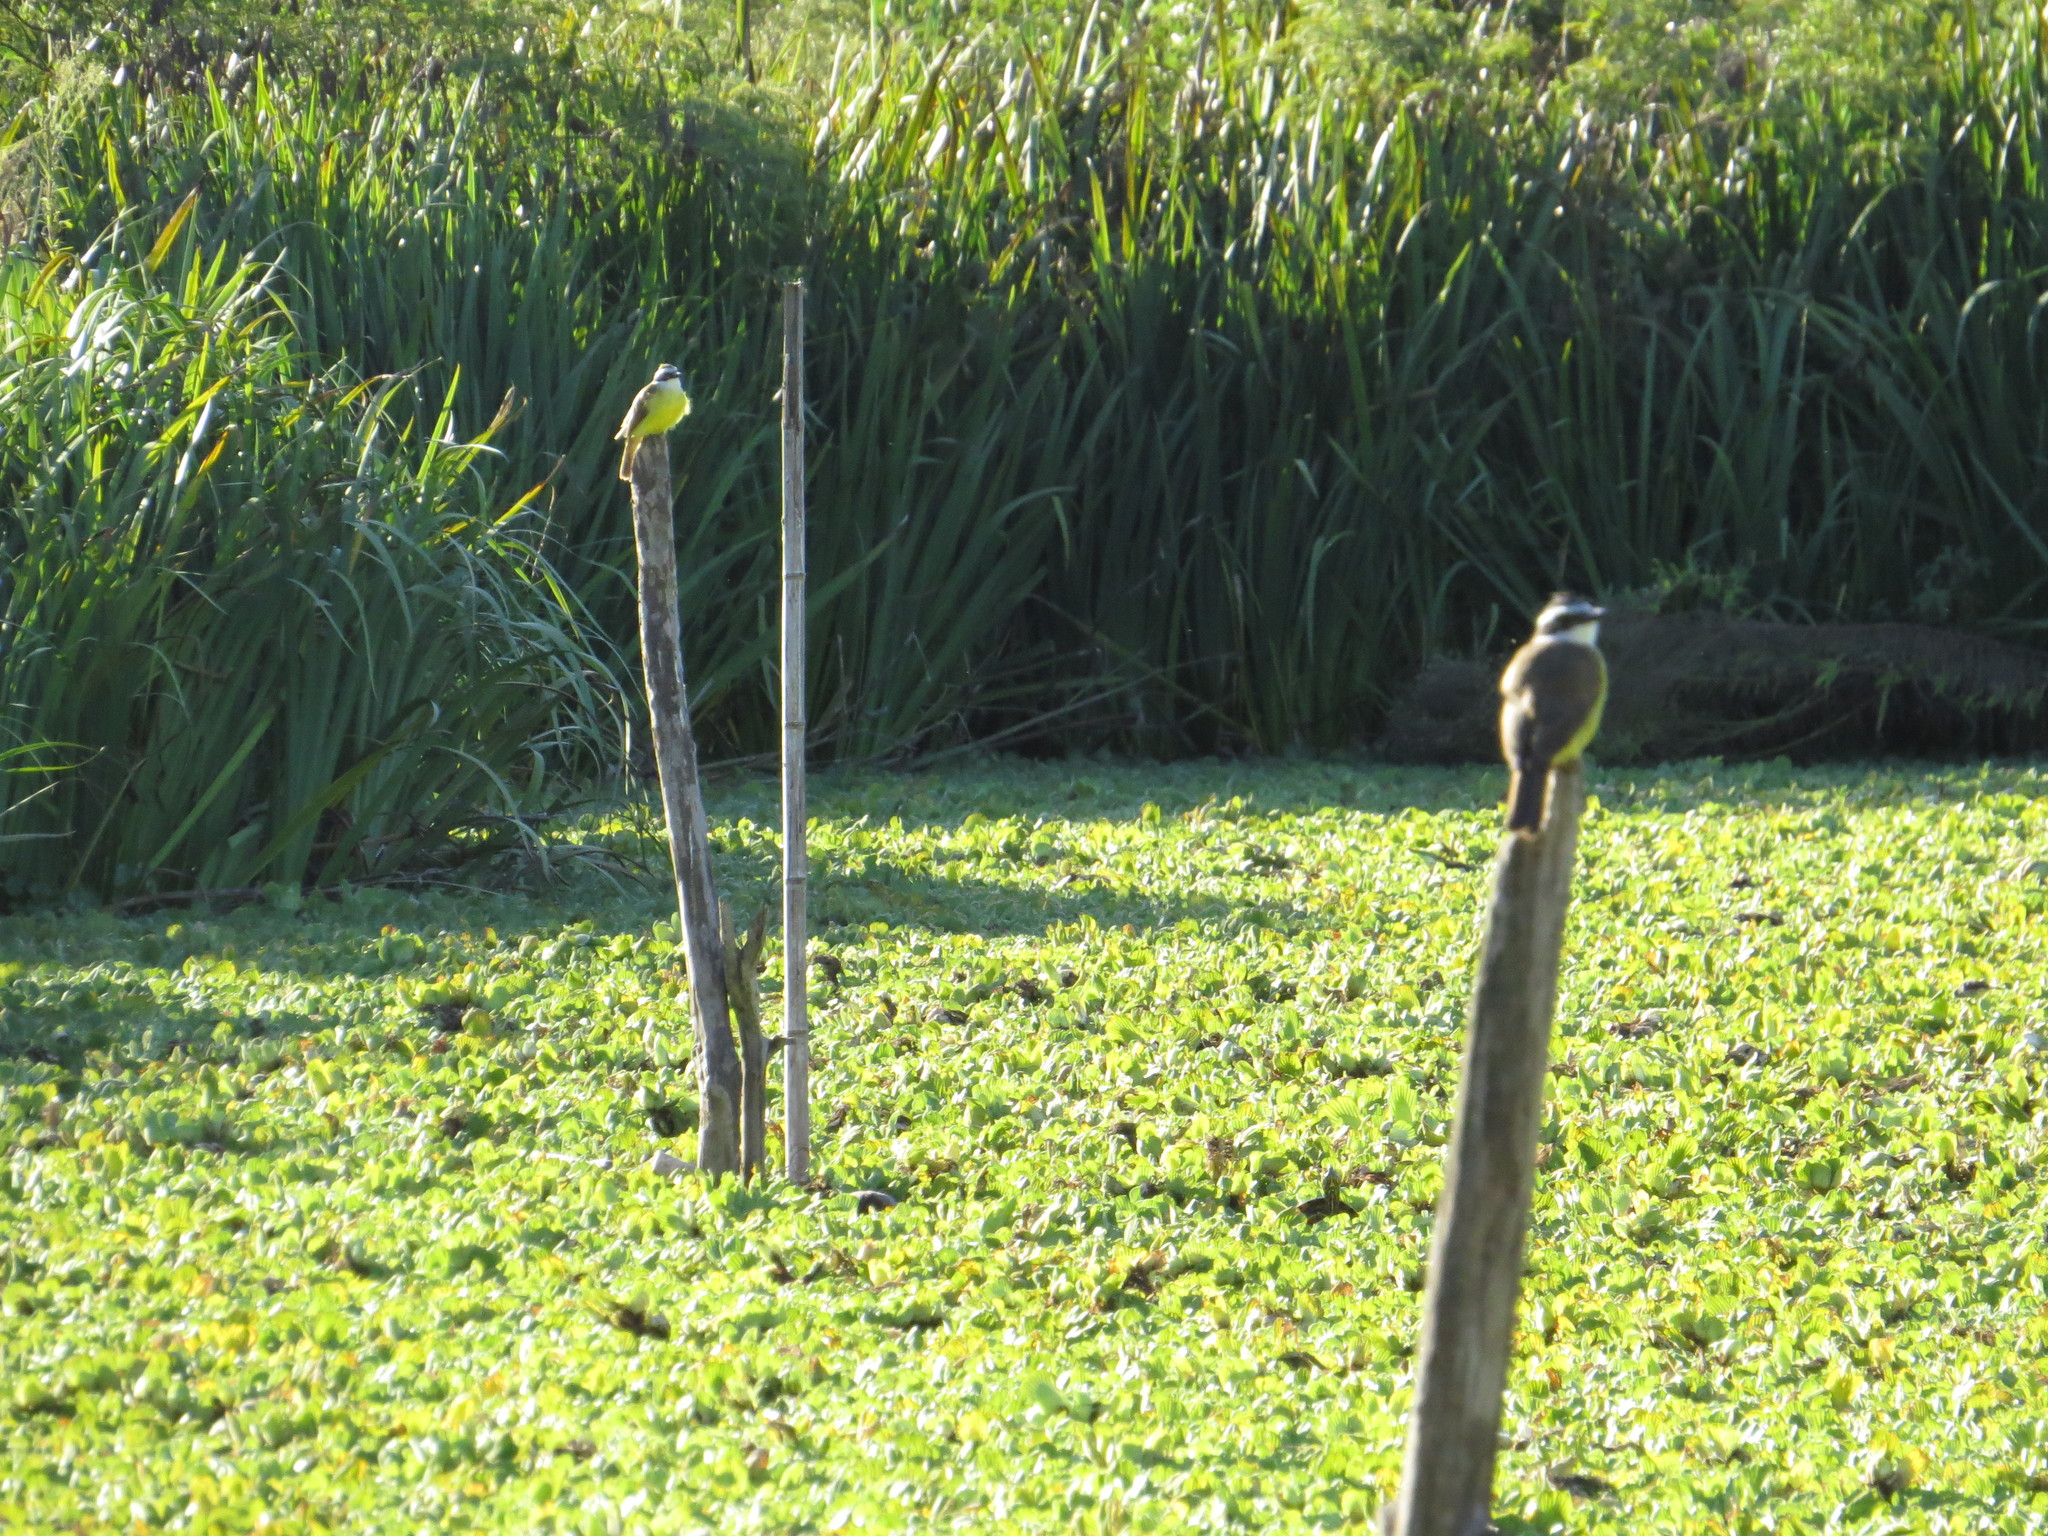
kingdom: Animalia
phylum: Chordata
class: Aves
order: Passeriformes
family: Tyrannidae
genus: Pitangus
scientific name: Pitangus sulphuratus
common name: Great kiskadee
